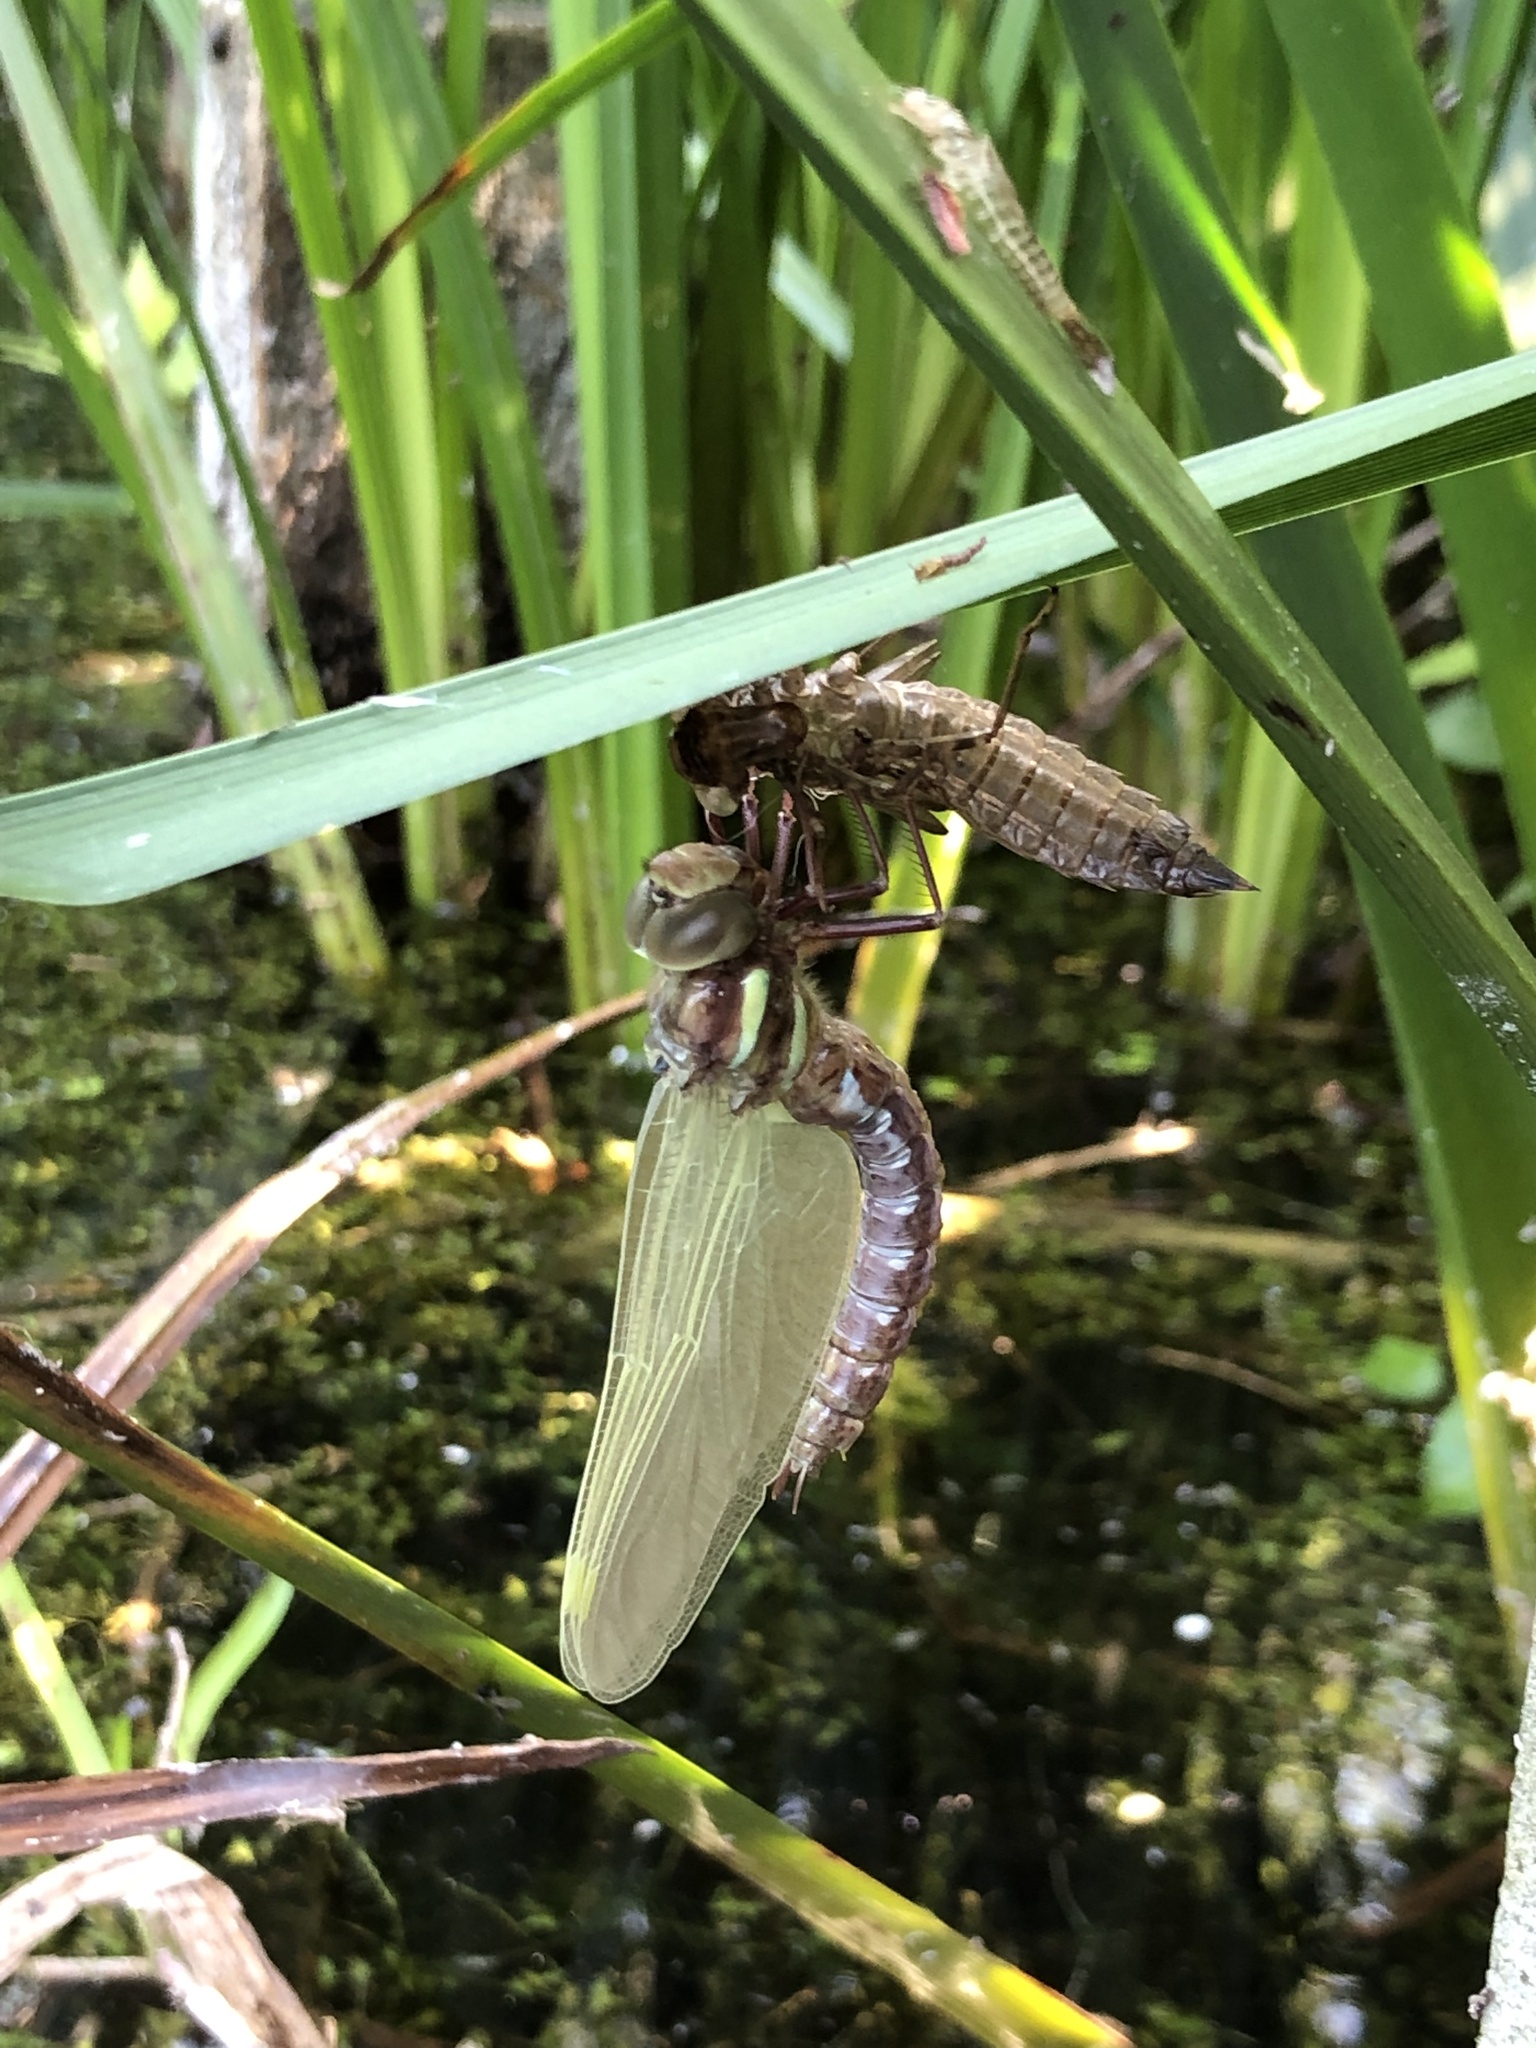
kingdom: Animalia
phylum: Arthropoda
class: Insecta
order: Odonata
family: Aeshnidae
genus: Aeshna
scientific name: Aeshna grandis
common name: Brown hawker
